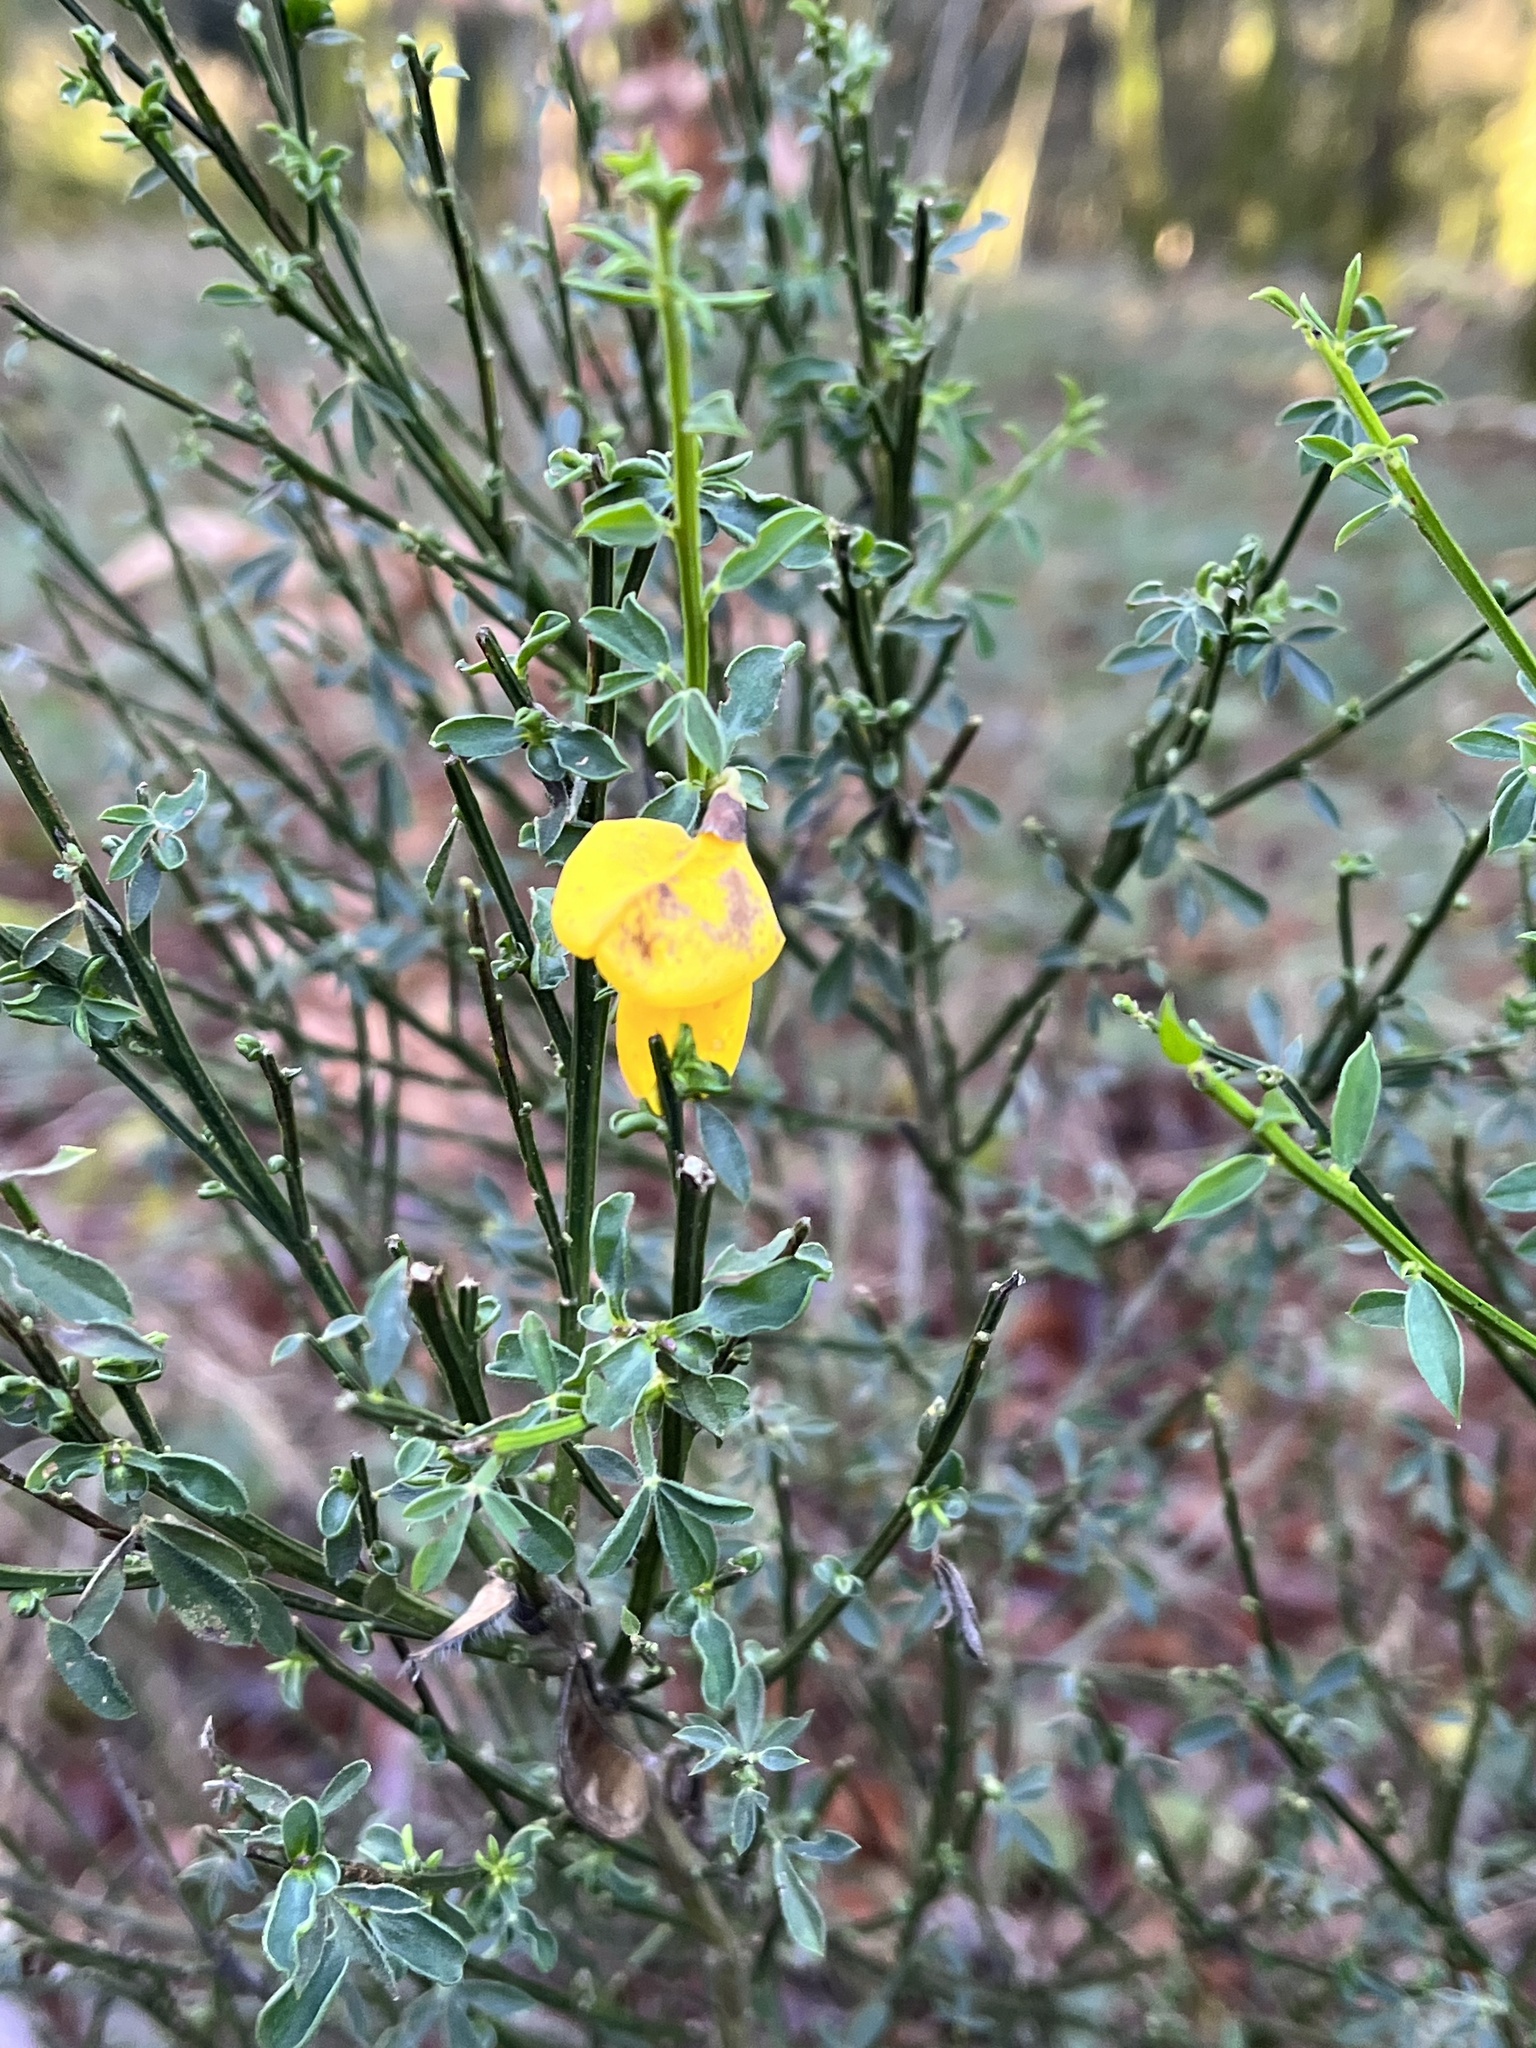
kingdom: Plantae
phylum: Tracheophyta
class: Magnoliopsida
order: Fabales
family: Fabaceae
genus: Cytisus
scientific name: Cytisus scoparius
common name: Scotch broom
